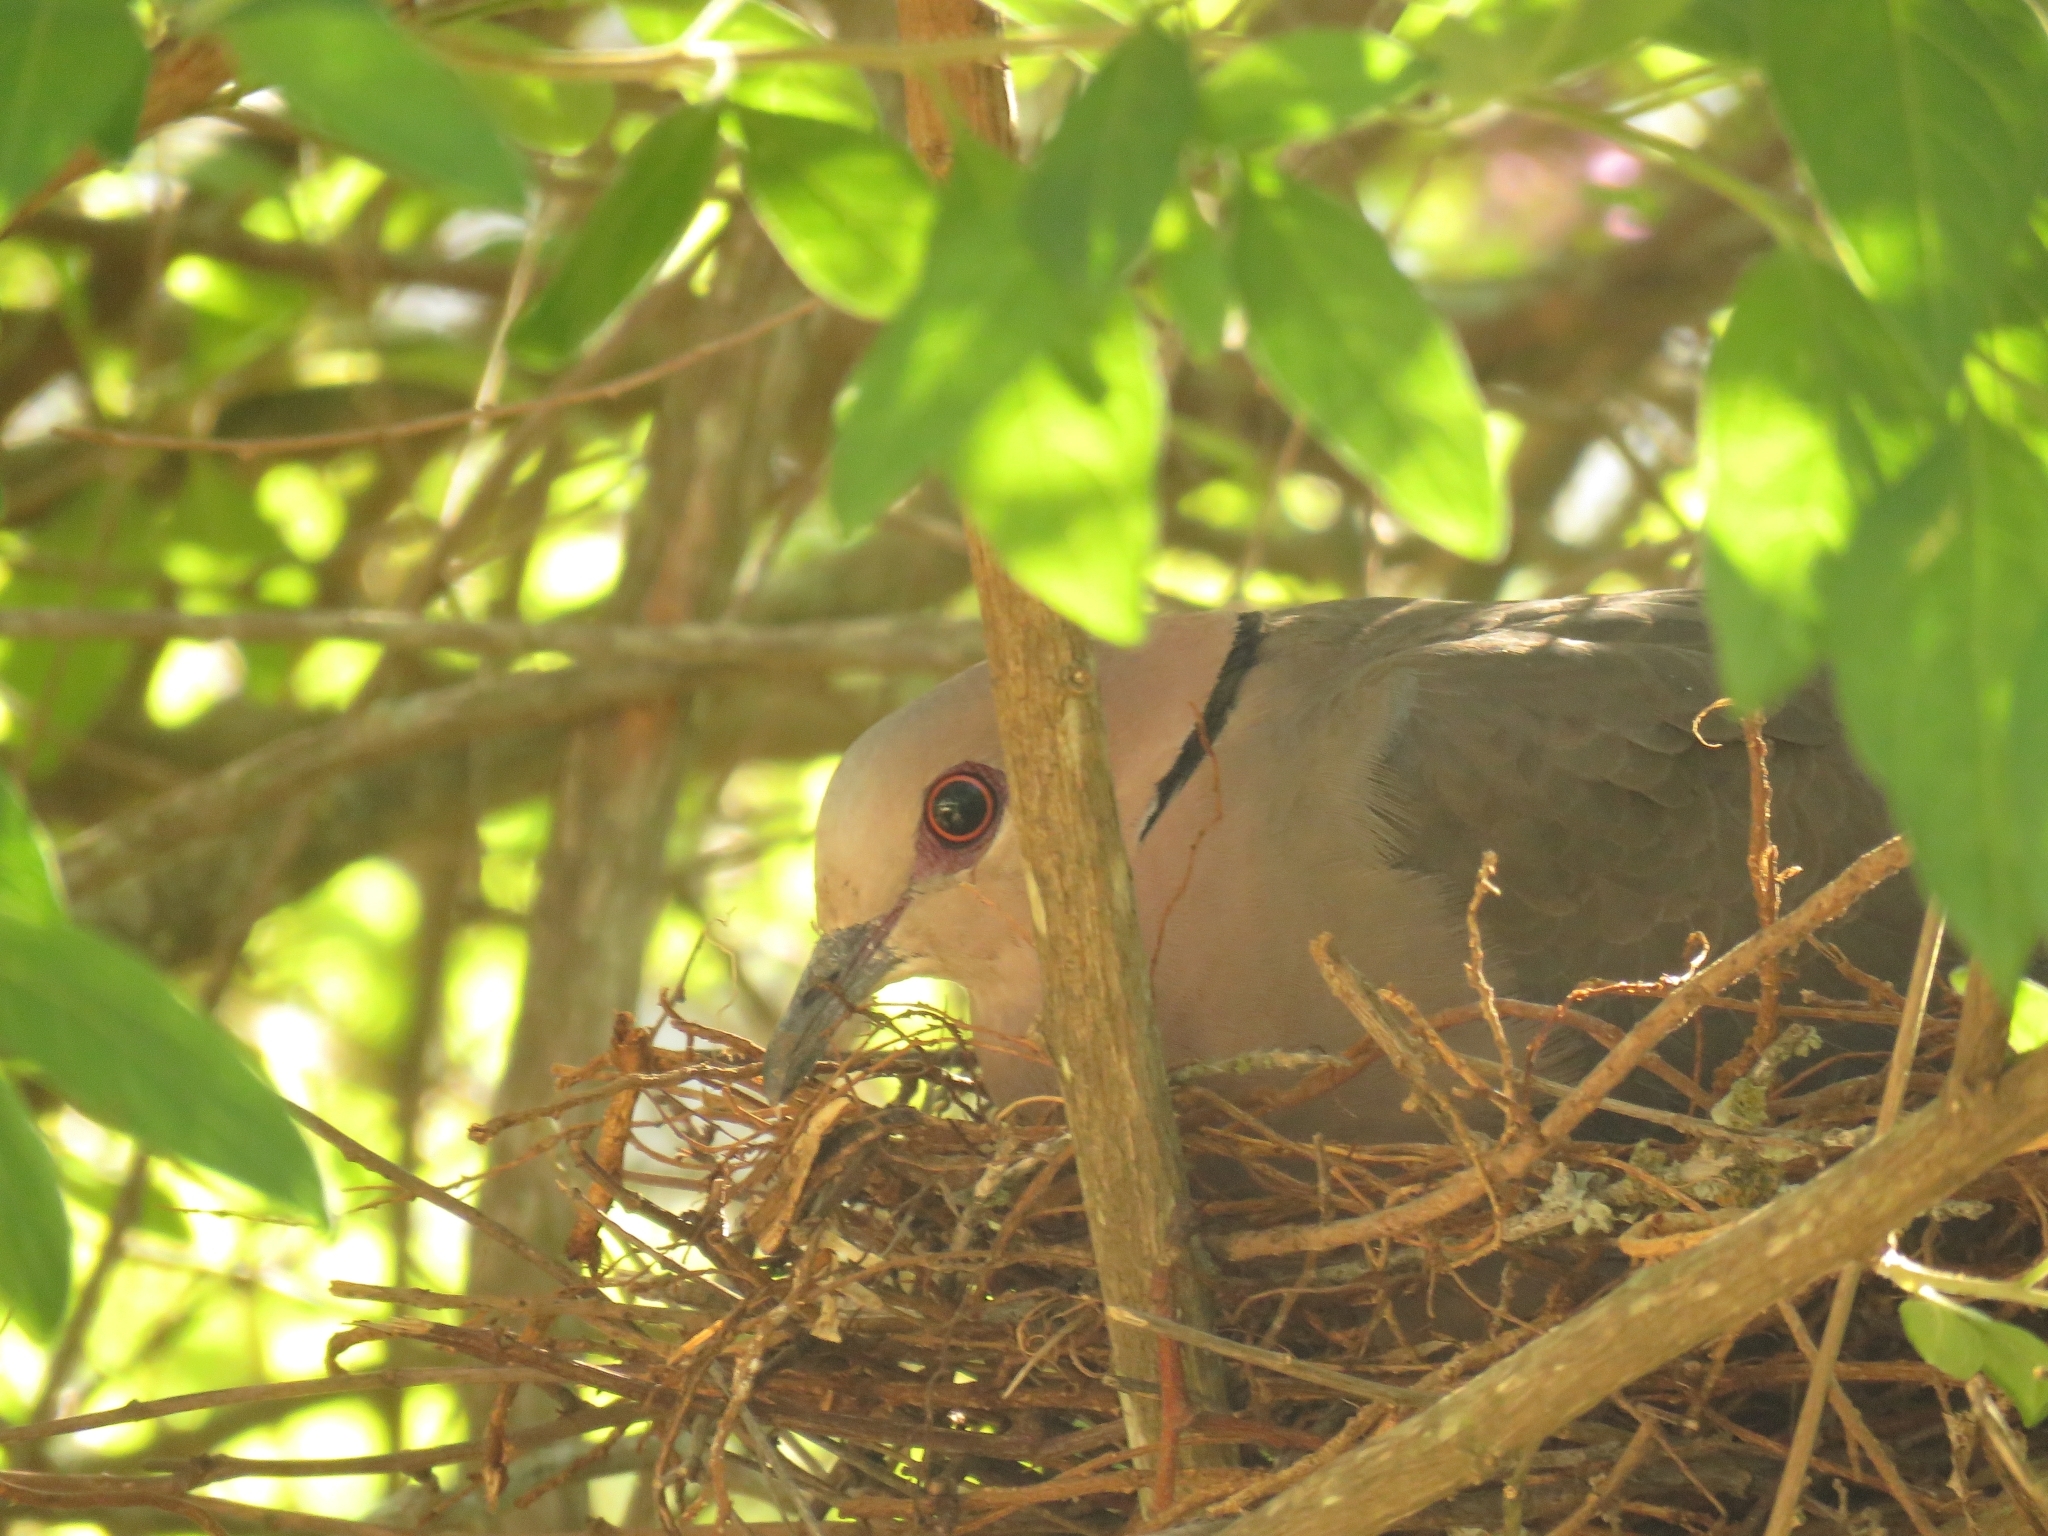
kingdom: Animalia
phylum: Chordata
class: Aves
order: Columbiformes
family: Columbidae
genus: Streptopelia
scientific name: Streptopelia semitorquata
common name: Red-eyed dove
